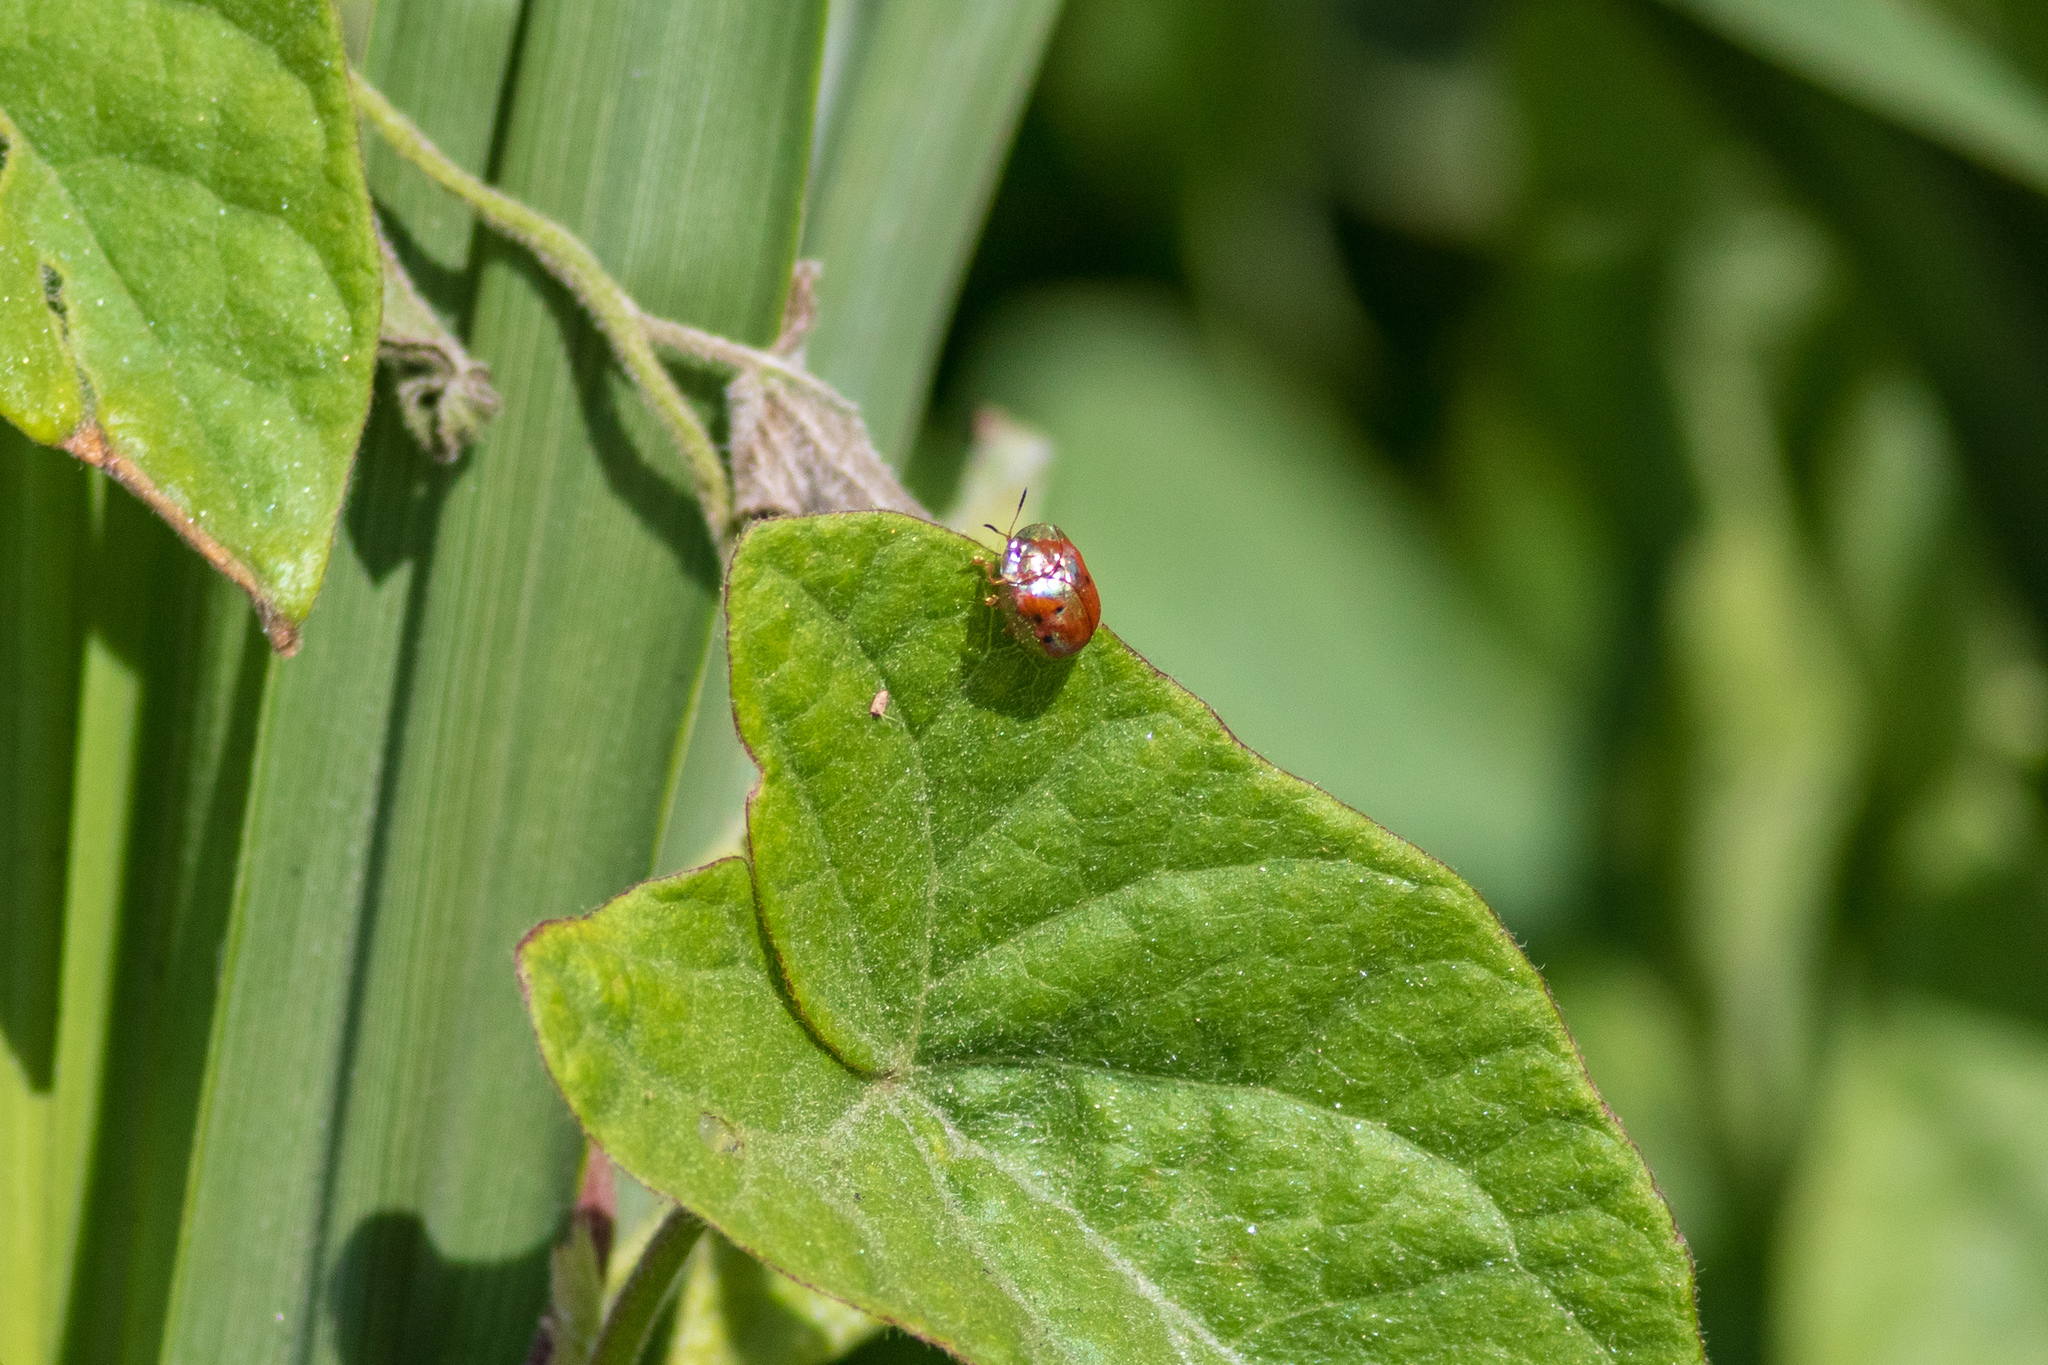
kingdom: Animalia
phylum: Arthropoda
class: Insecta
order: Coleoptera
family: Chrysomelidae
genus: Charidotella
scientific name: Charidotella sexpunctata
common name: Golden tortoise beetle
